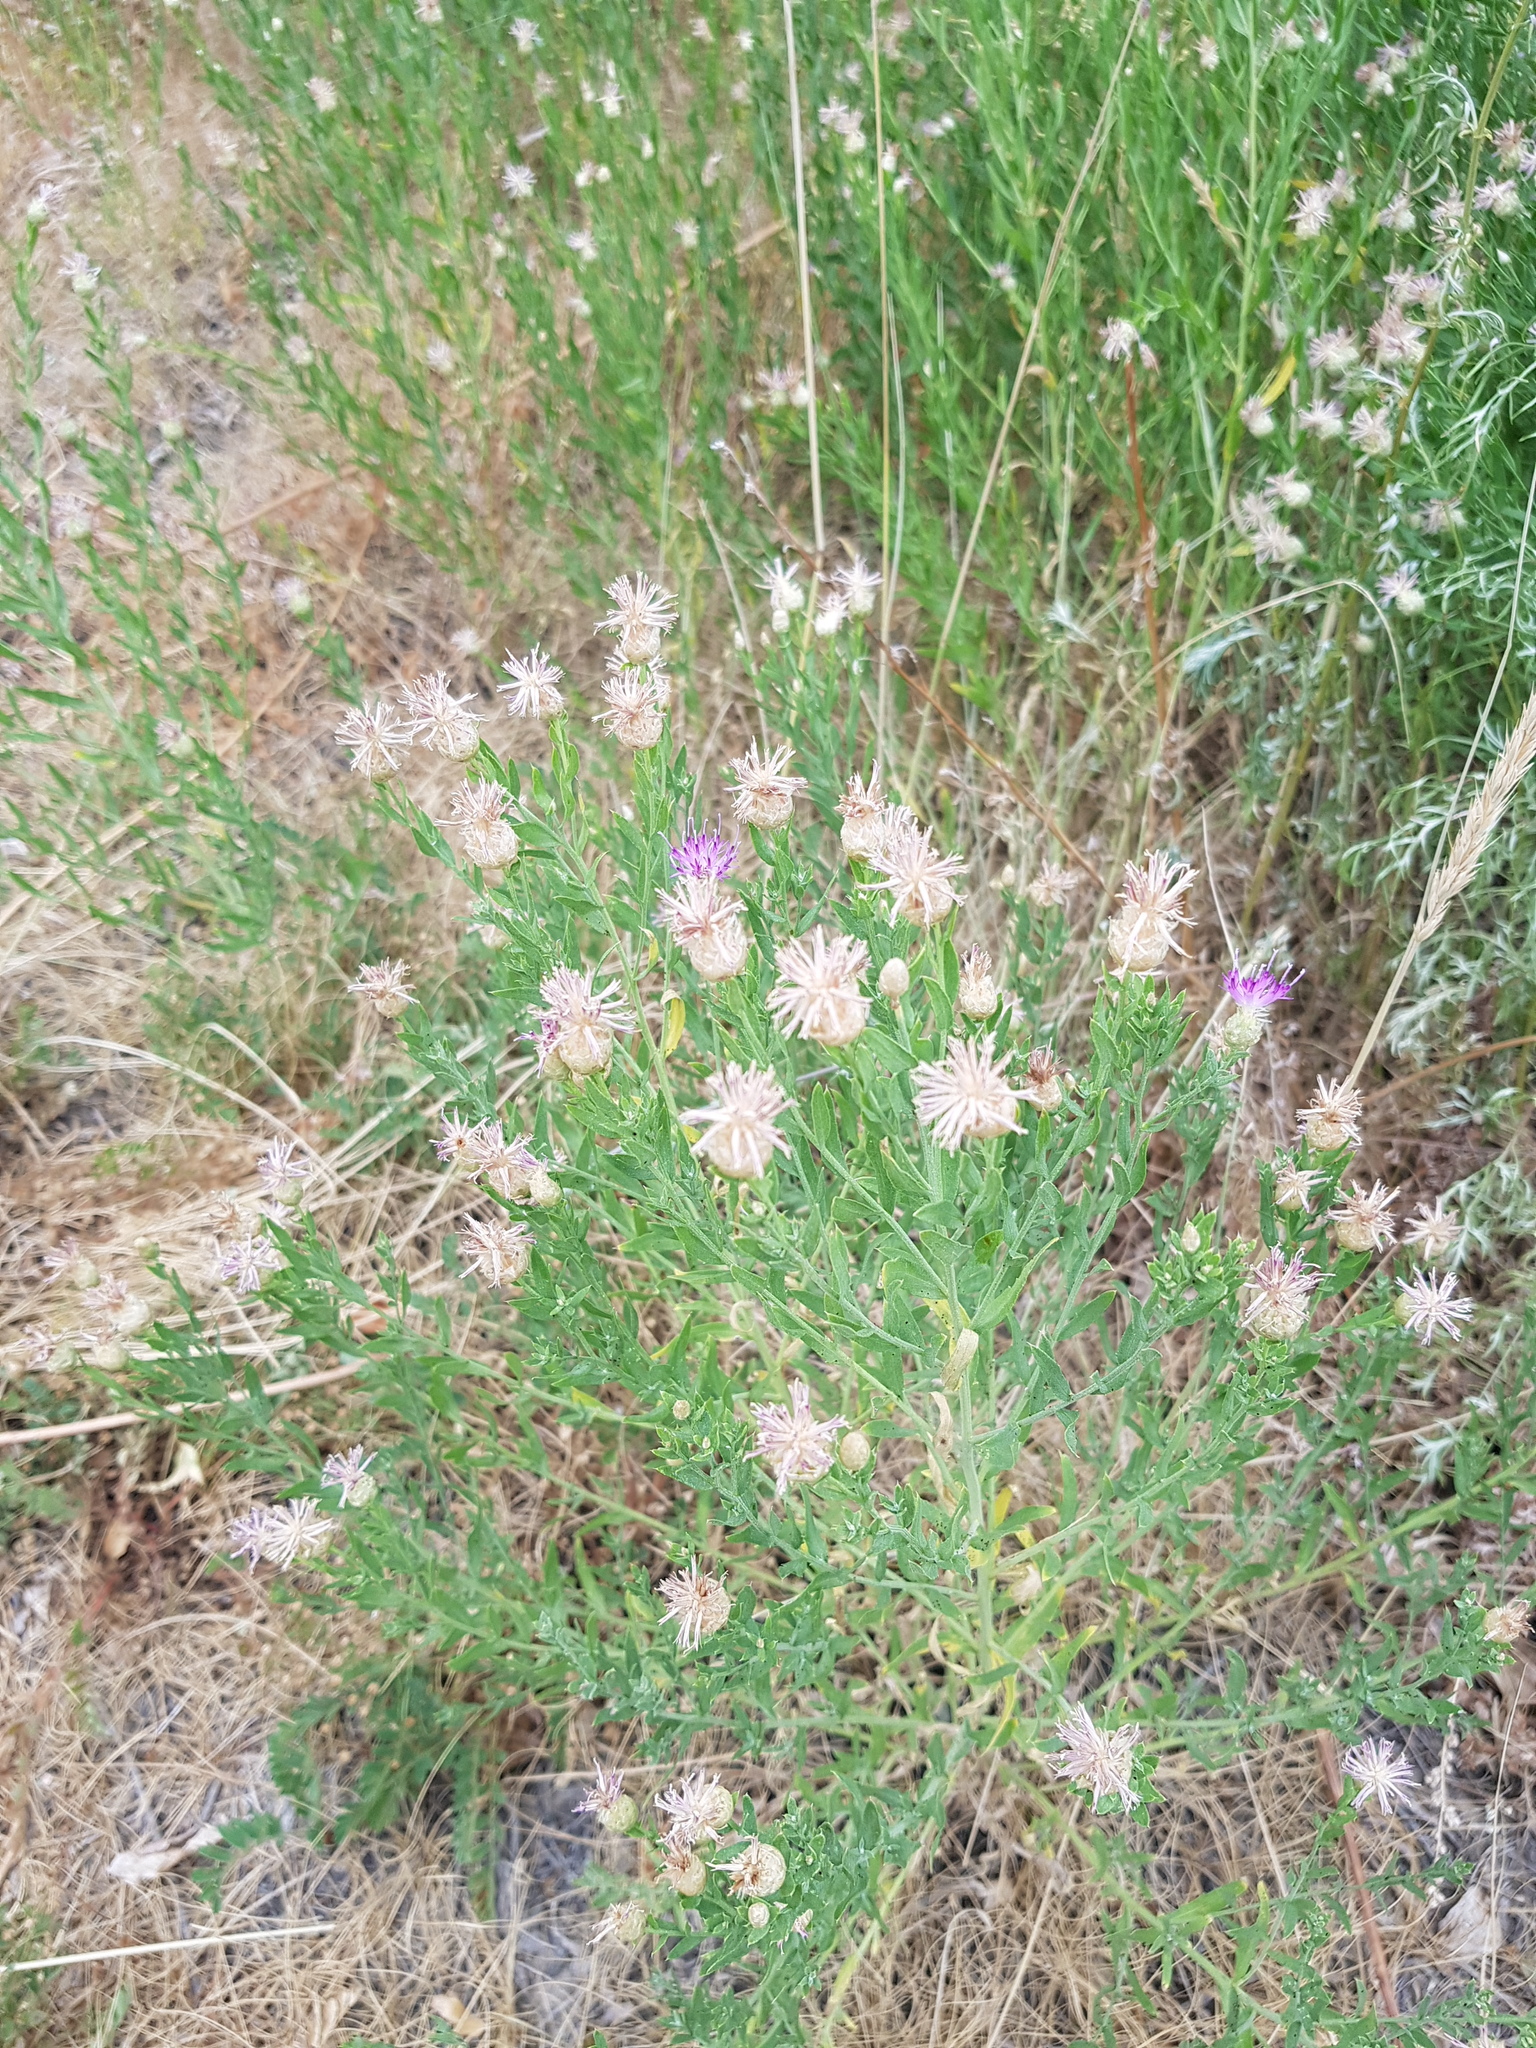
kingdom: Plantae
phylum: Tracheophyta
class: Magnoliopsida
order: Asterales
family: Asteraceae
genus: Leuzea
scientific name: Leuzea repens
